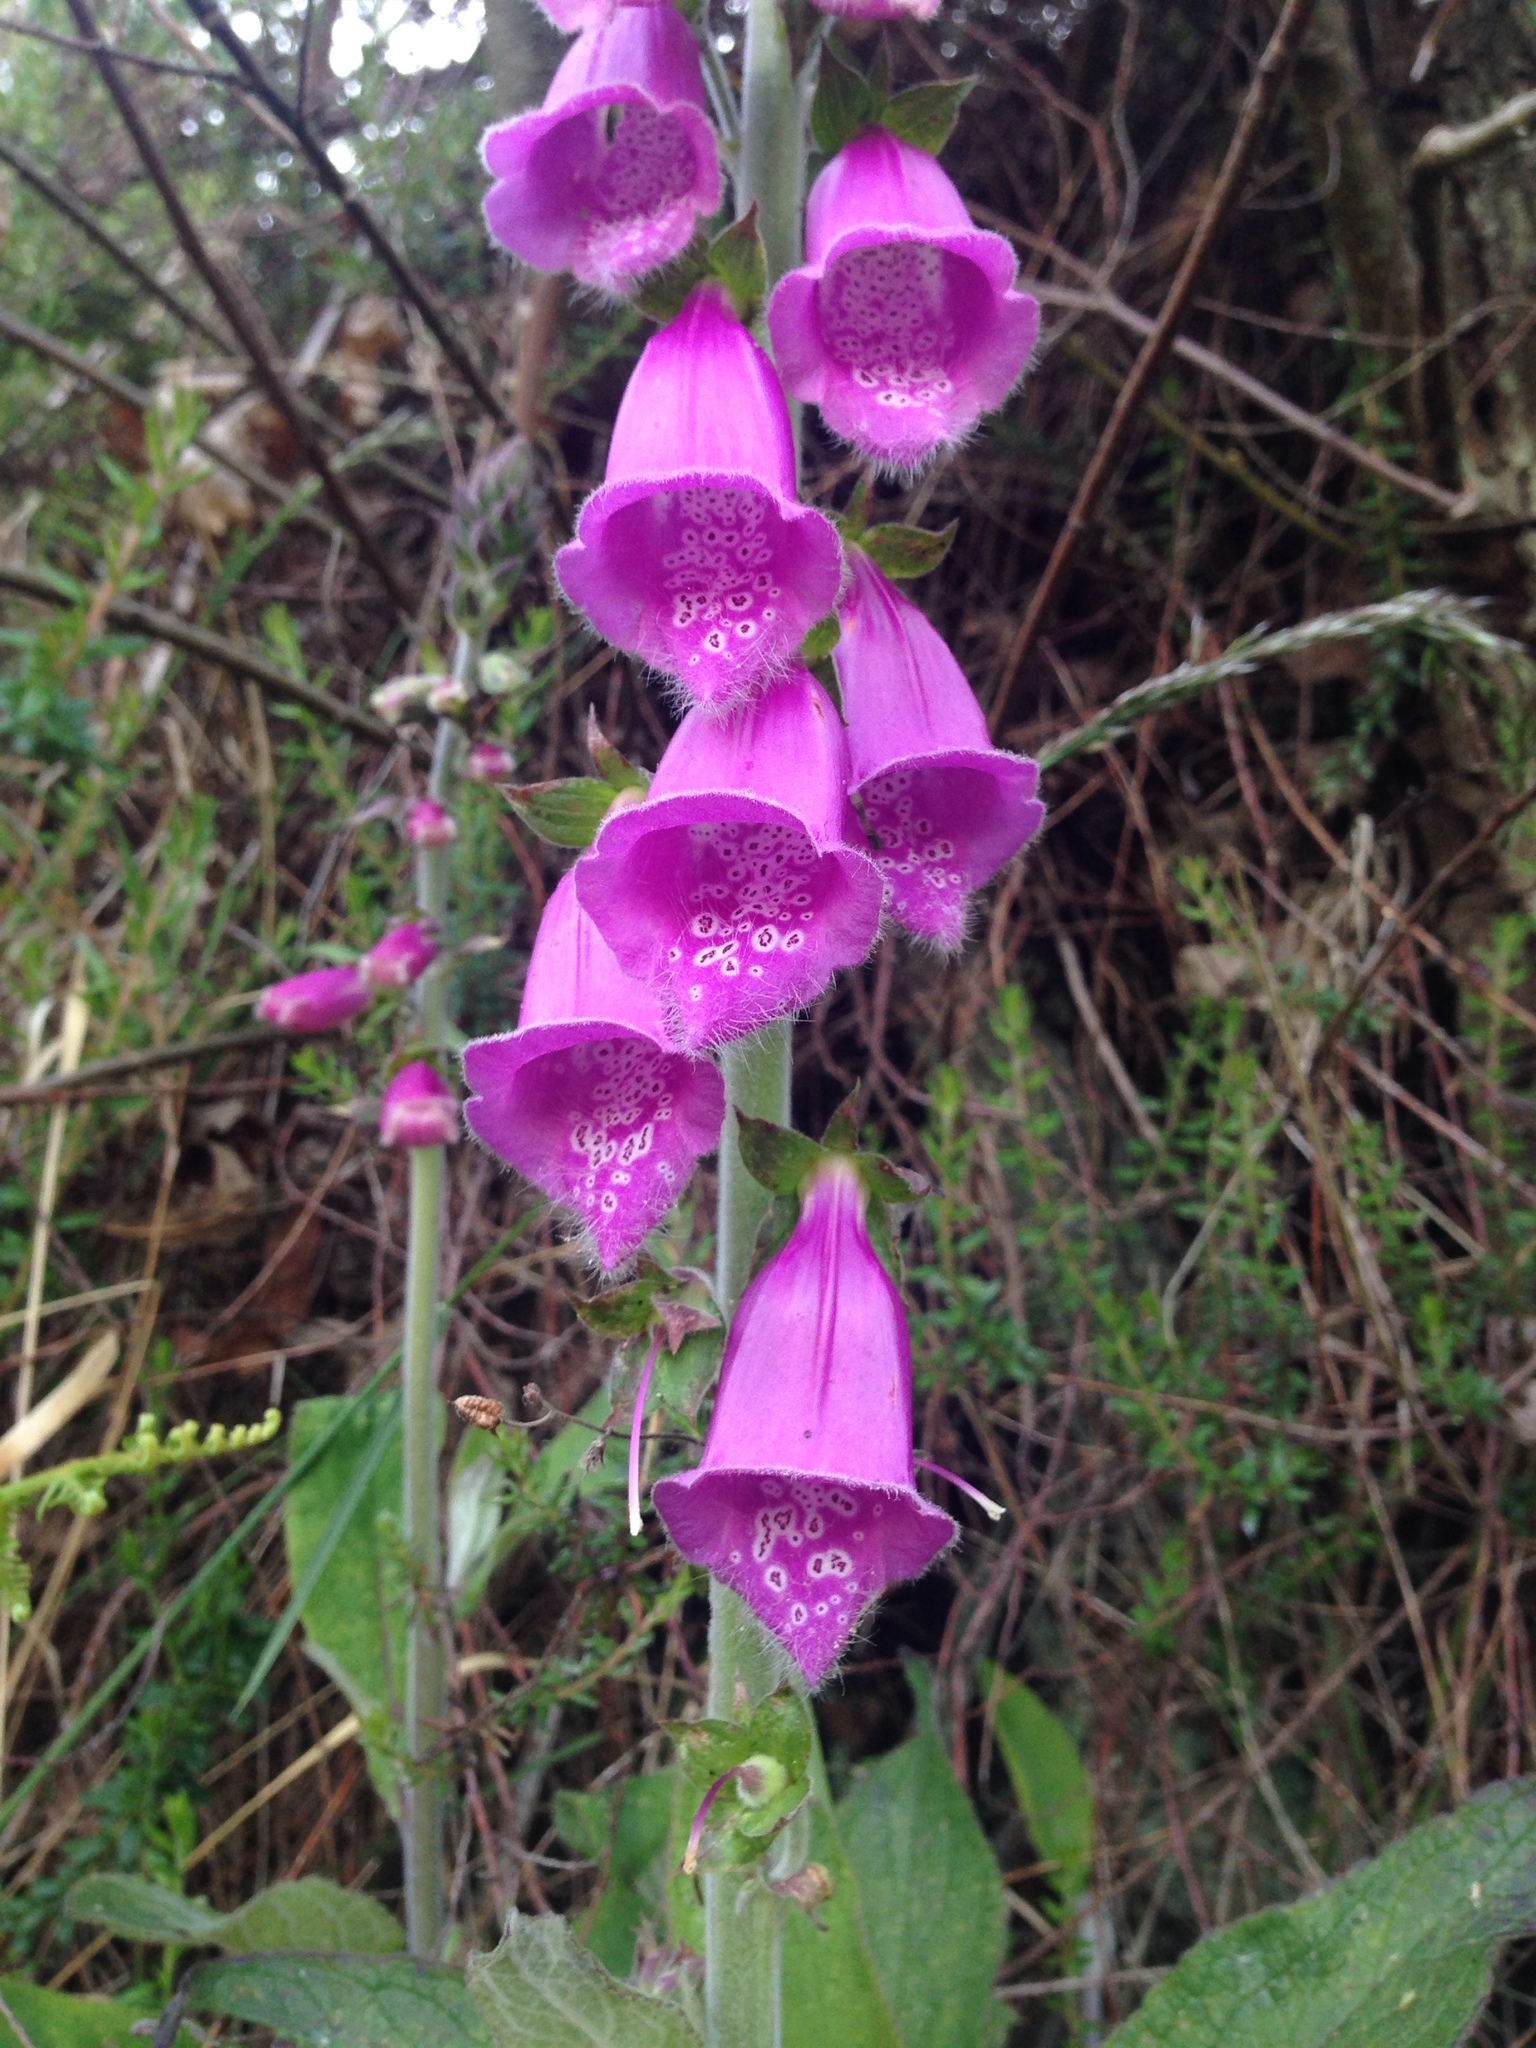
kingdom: Plantae
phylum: Tracheophyta
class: Magnoliopsida
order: Lamiales
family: Plantaginaceae
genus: Digitalis
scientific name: Digitalis purpurea
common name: Foxglove
